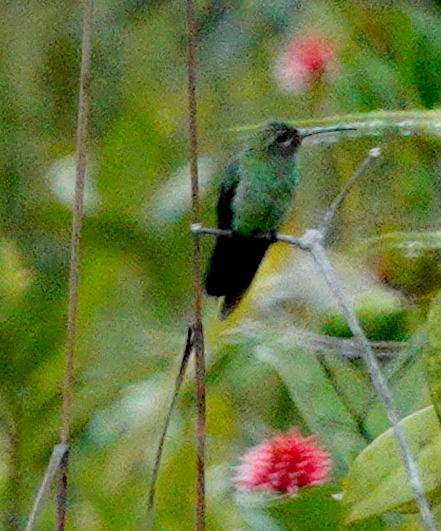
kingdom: Animalia
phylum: Chordata
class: Aves
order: Apodiformes
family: Trochilidae
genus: Polytmus
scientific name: Polytmus theresiae
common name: Green-tailed goldenthroat
